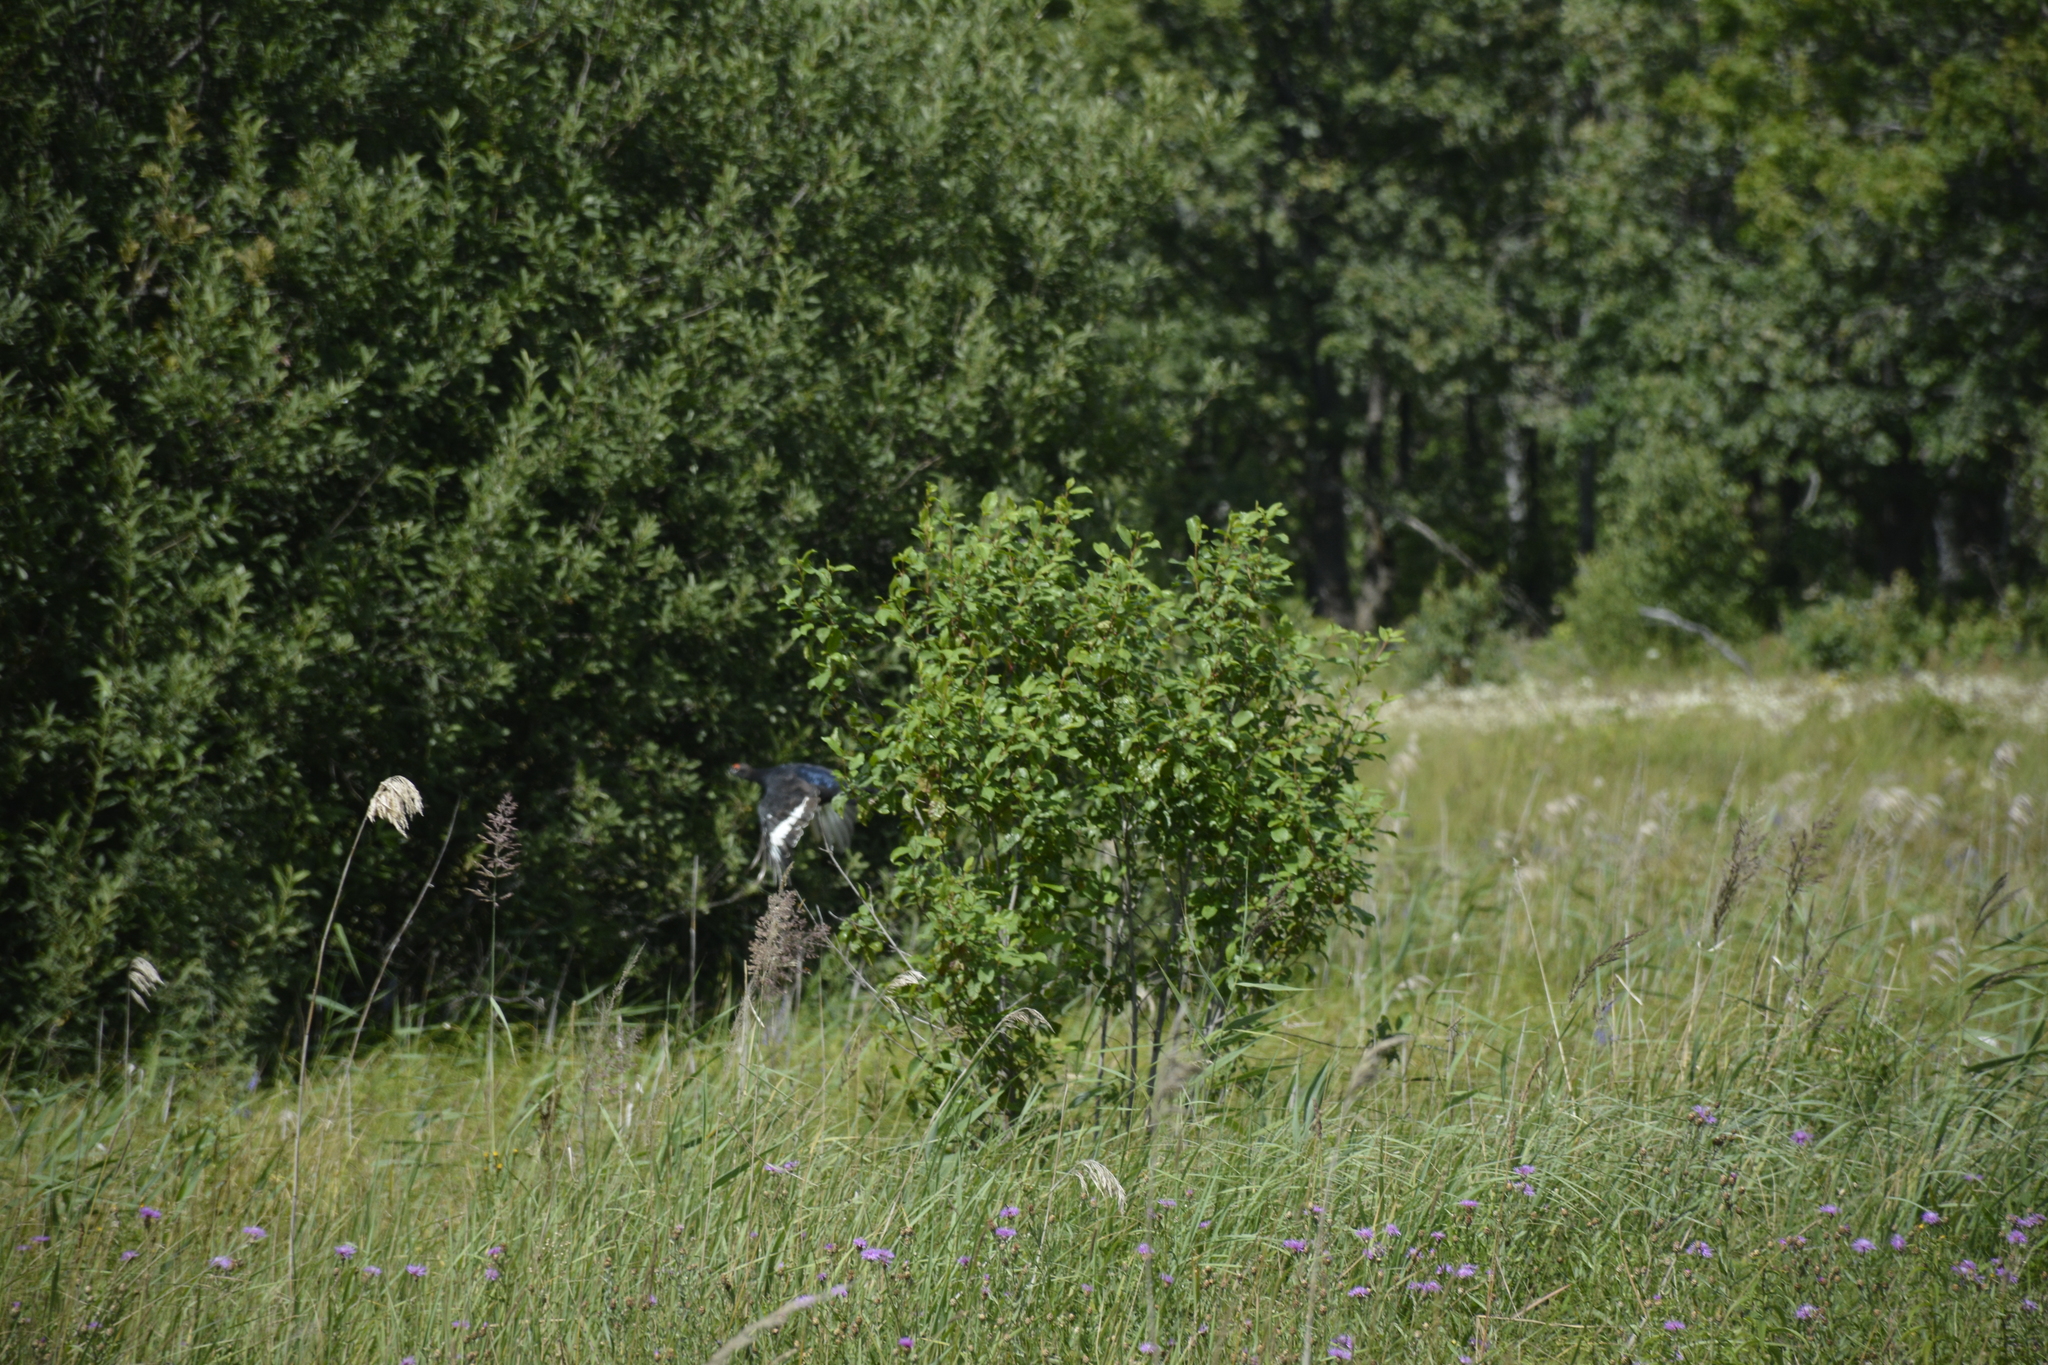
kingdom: Animalia
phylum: Chordata
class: Aves
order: Galliformes
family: Phasianidae
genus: Lyrurus
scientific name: Lyrurus tetrix
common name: Black grouse
